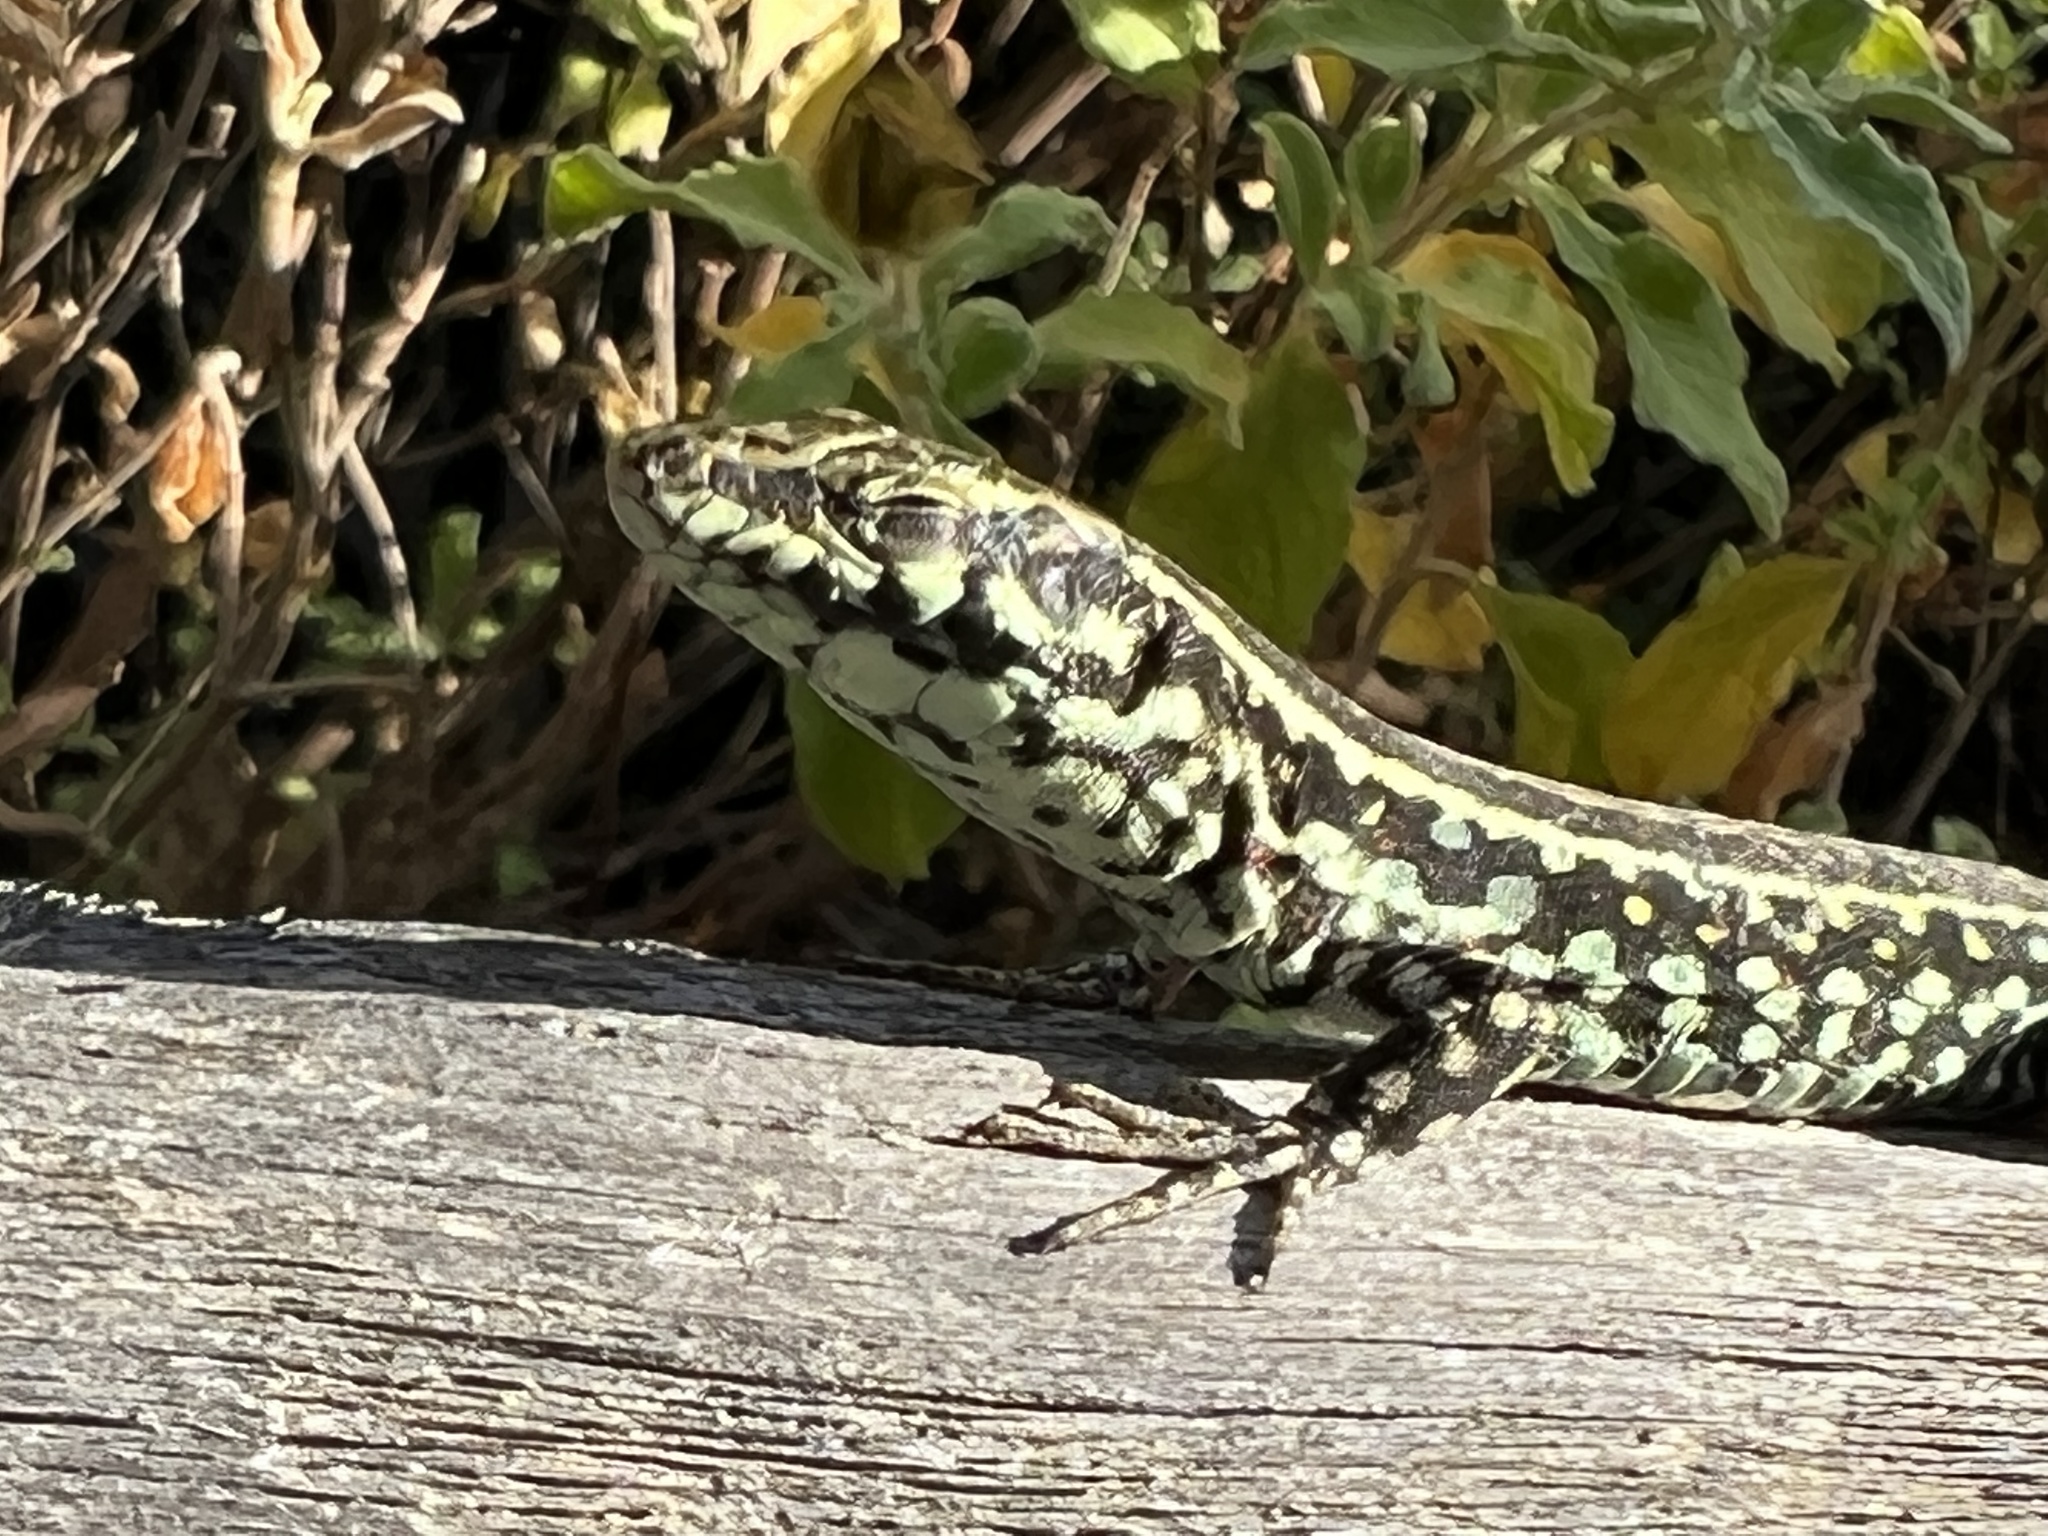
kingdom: Animalia
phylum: Chordata
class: Squamata
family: Lacertidae
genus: Podarcis
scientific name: Podarcis tiliguerta
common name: Tyrrhenian wall lizard
